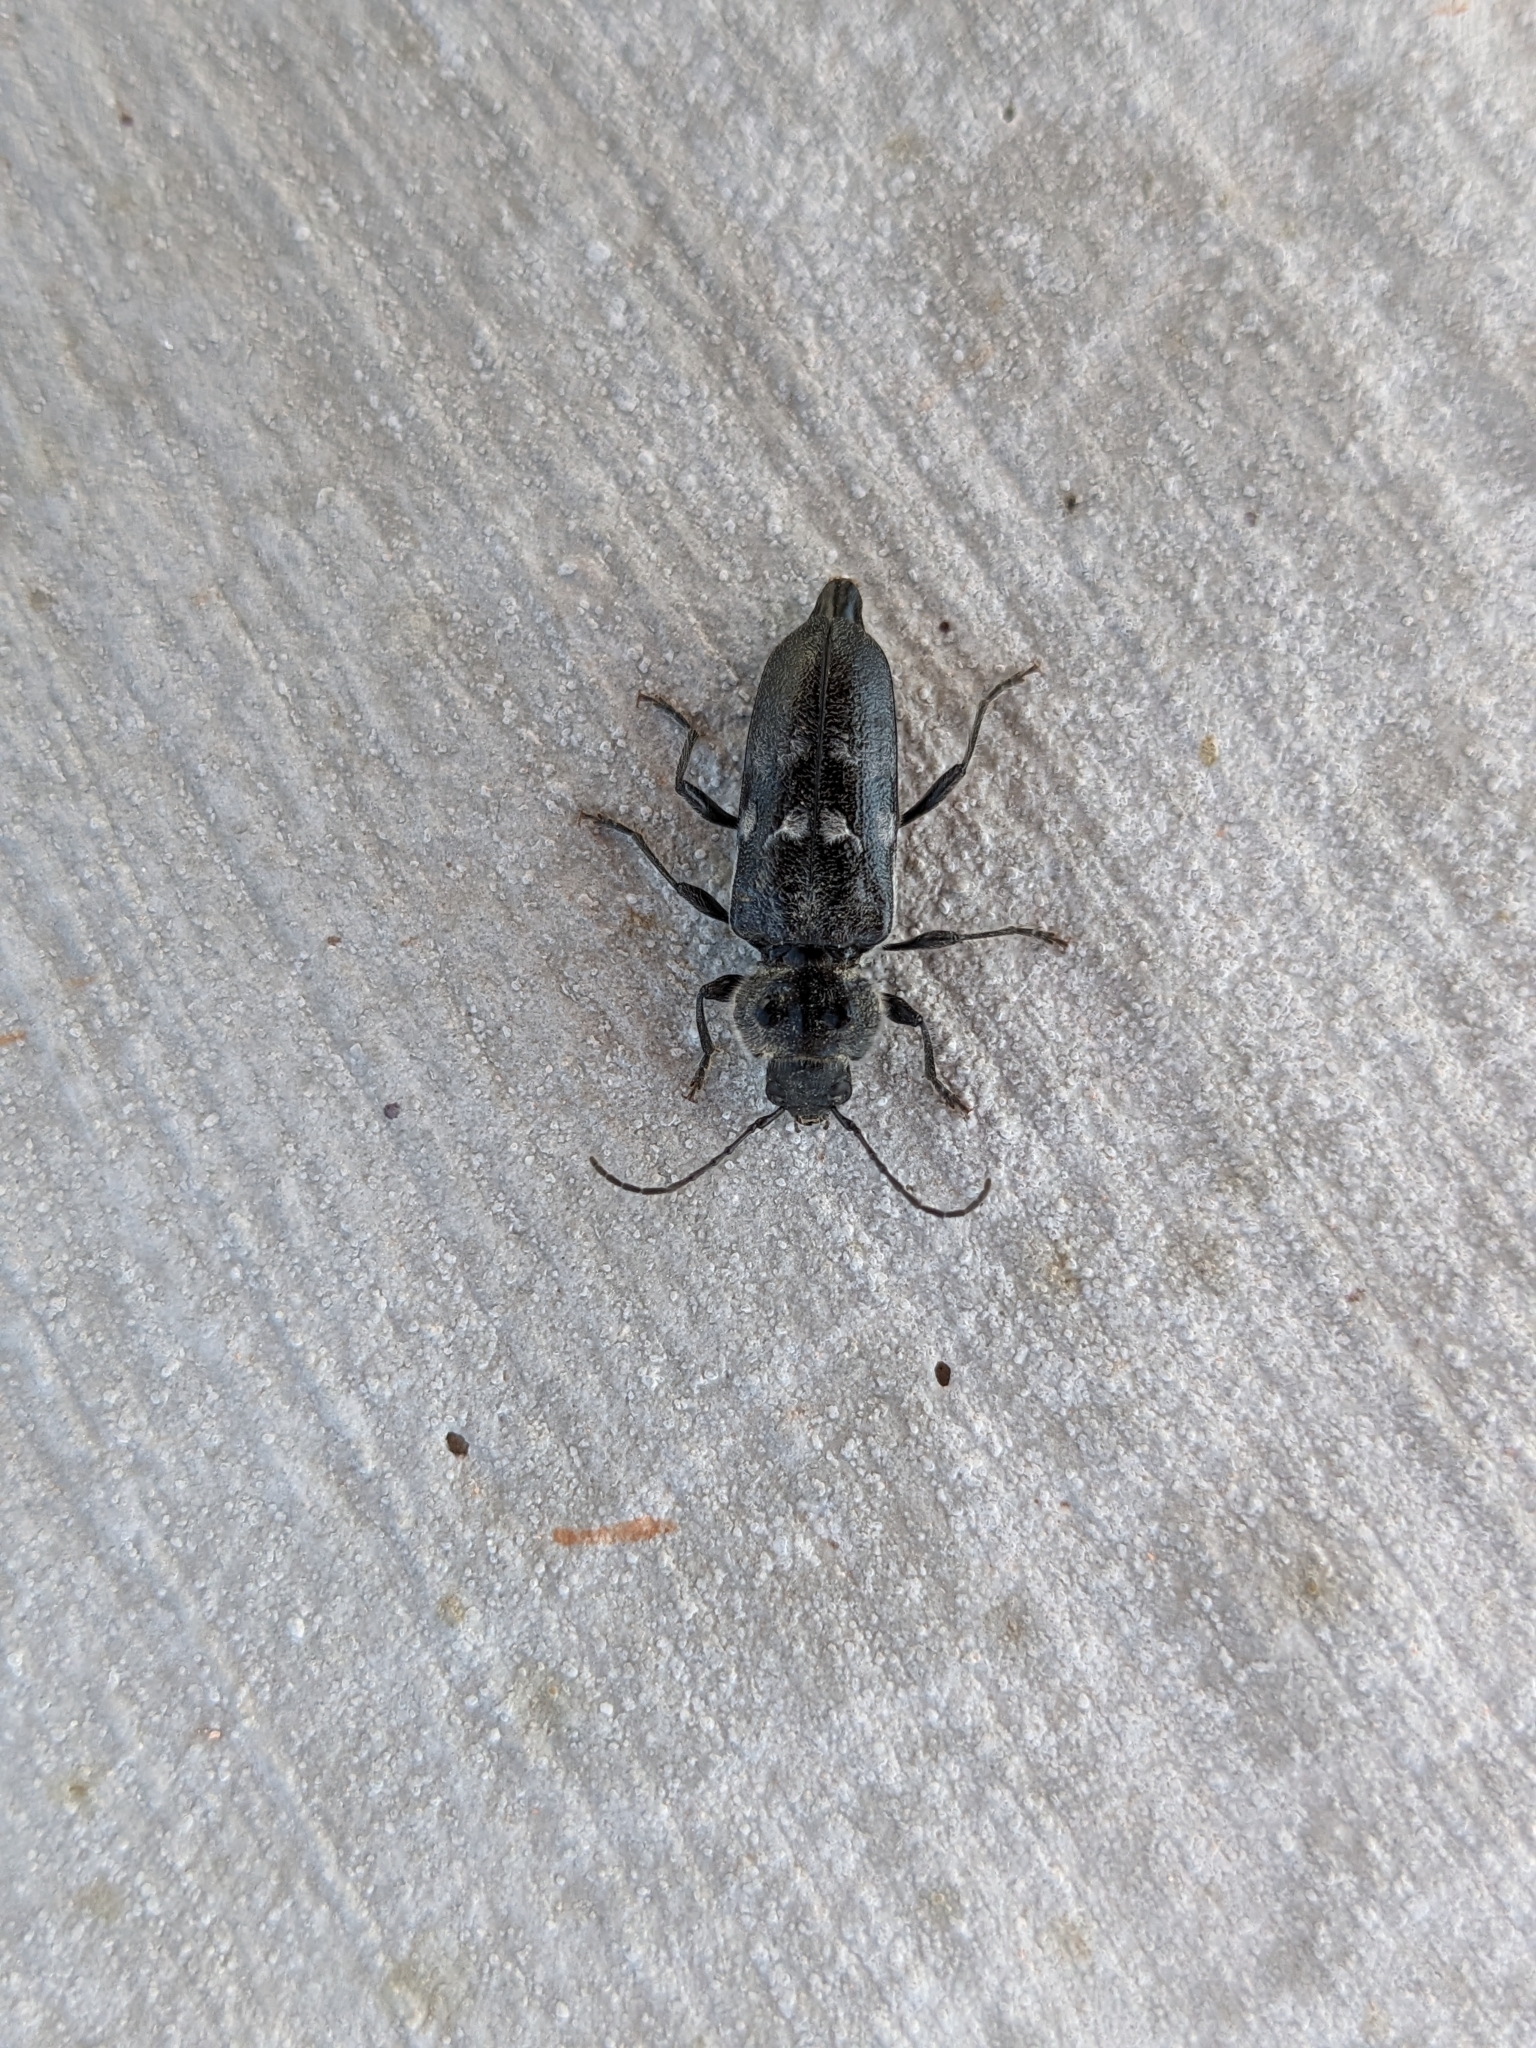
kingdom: Animalia
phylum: Arthropoda
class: Insecta
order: Coleoptera
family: Cerambycidae
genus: Hylotrupes
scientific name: Hylotrupes bajulus
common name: Old house borer
